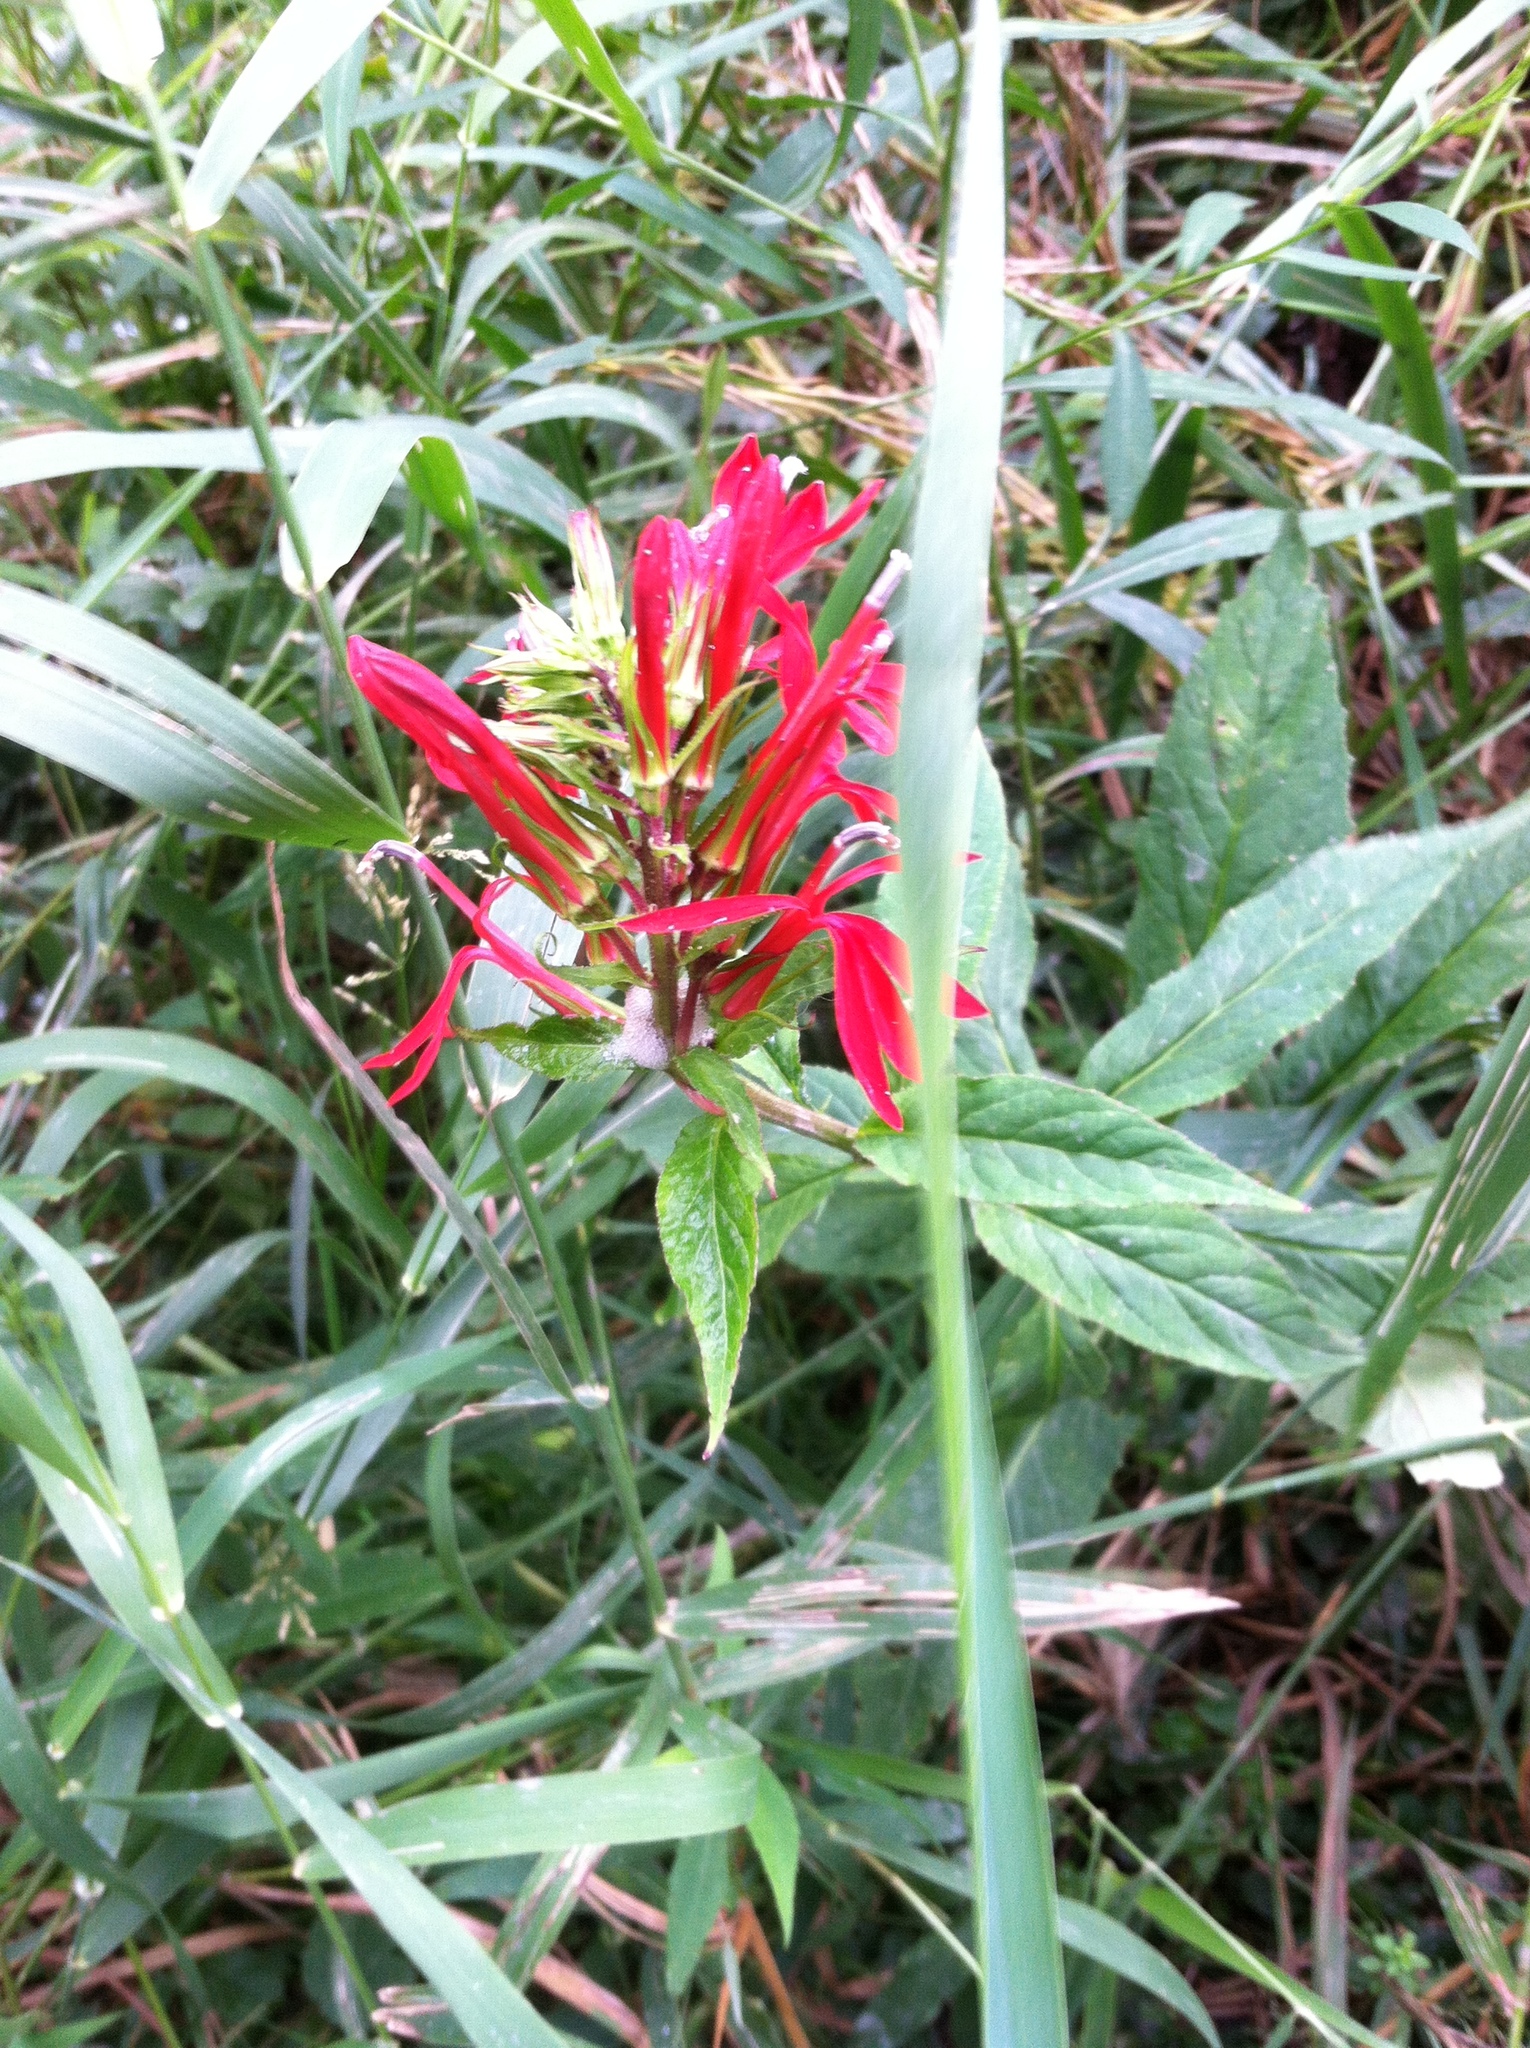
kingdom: Plantae
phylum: Tracheophyta
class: Magnoliopsida
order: Asterales
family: Campanulaceae
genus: Lobelia
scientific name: Lobelia cardinalis
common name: Cardinal flower
